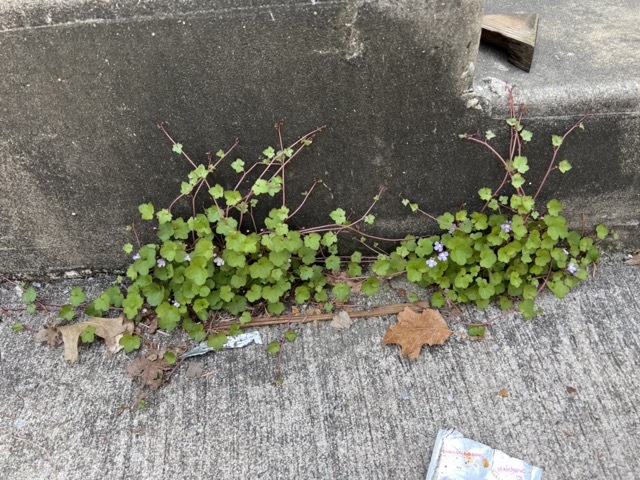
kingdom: Plantae
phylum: Tracheophyta
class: Magnoliopsida
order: Lamiales
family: Plantaginaceae
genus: Cymbalaria
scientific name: Cymbalaria muralis
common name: Ivy-leaved toadflax
